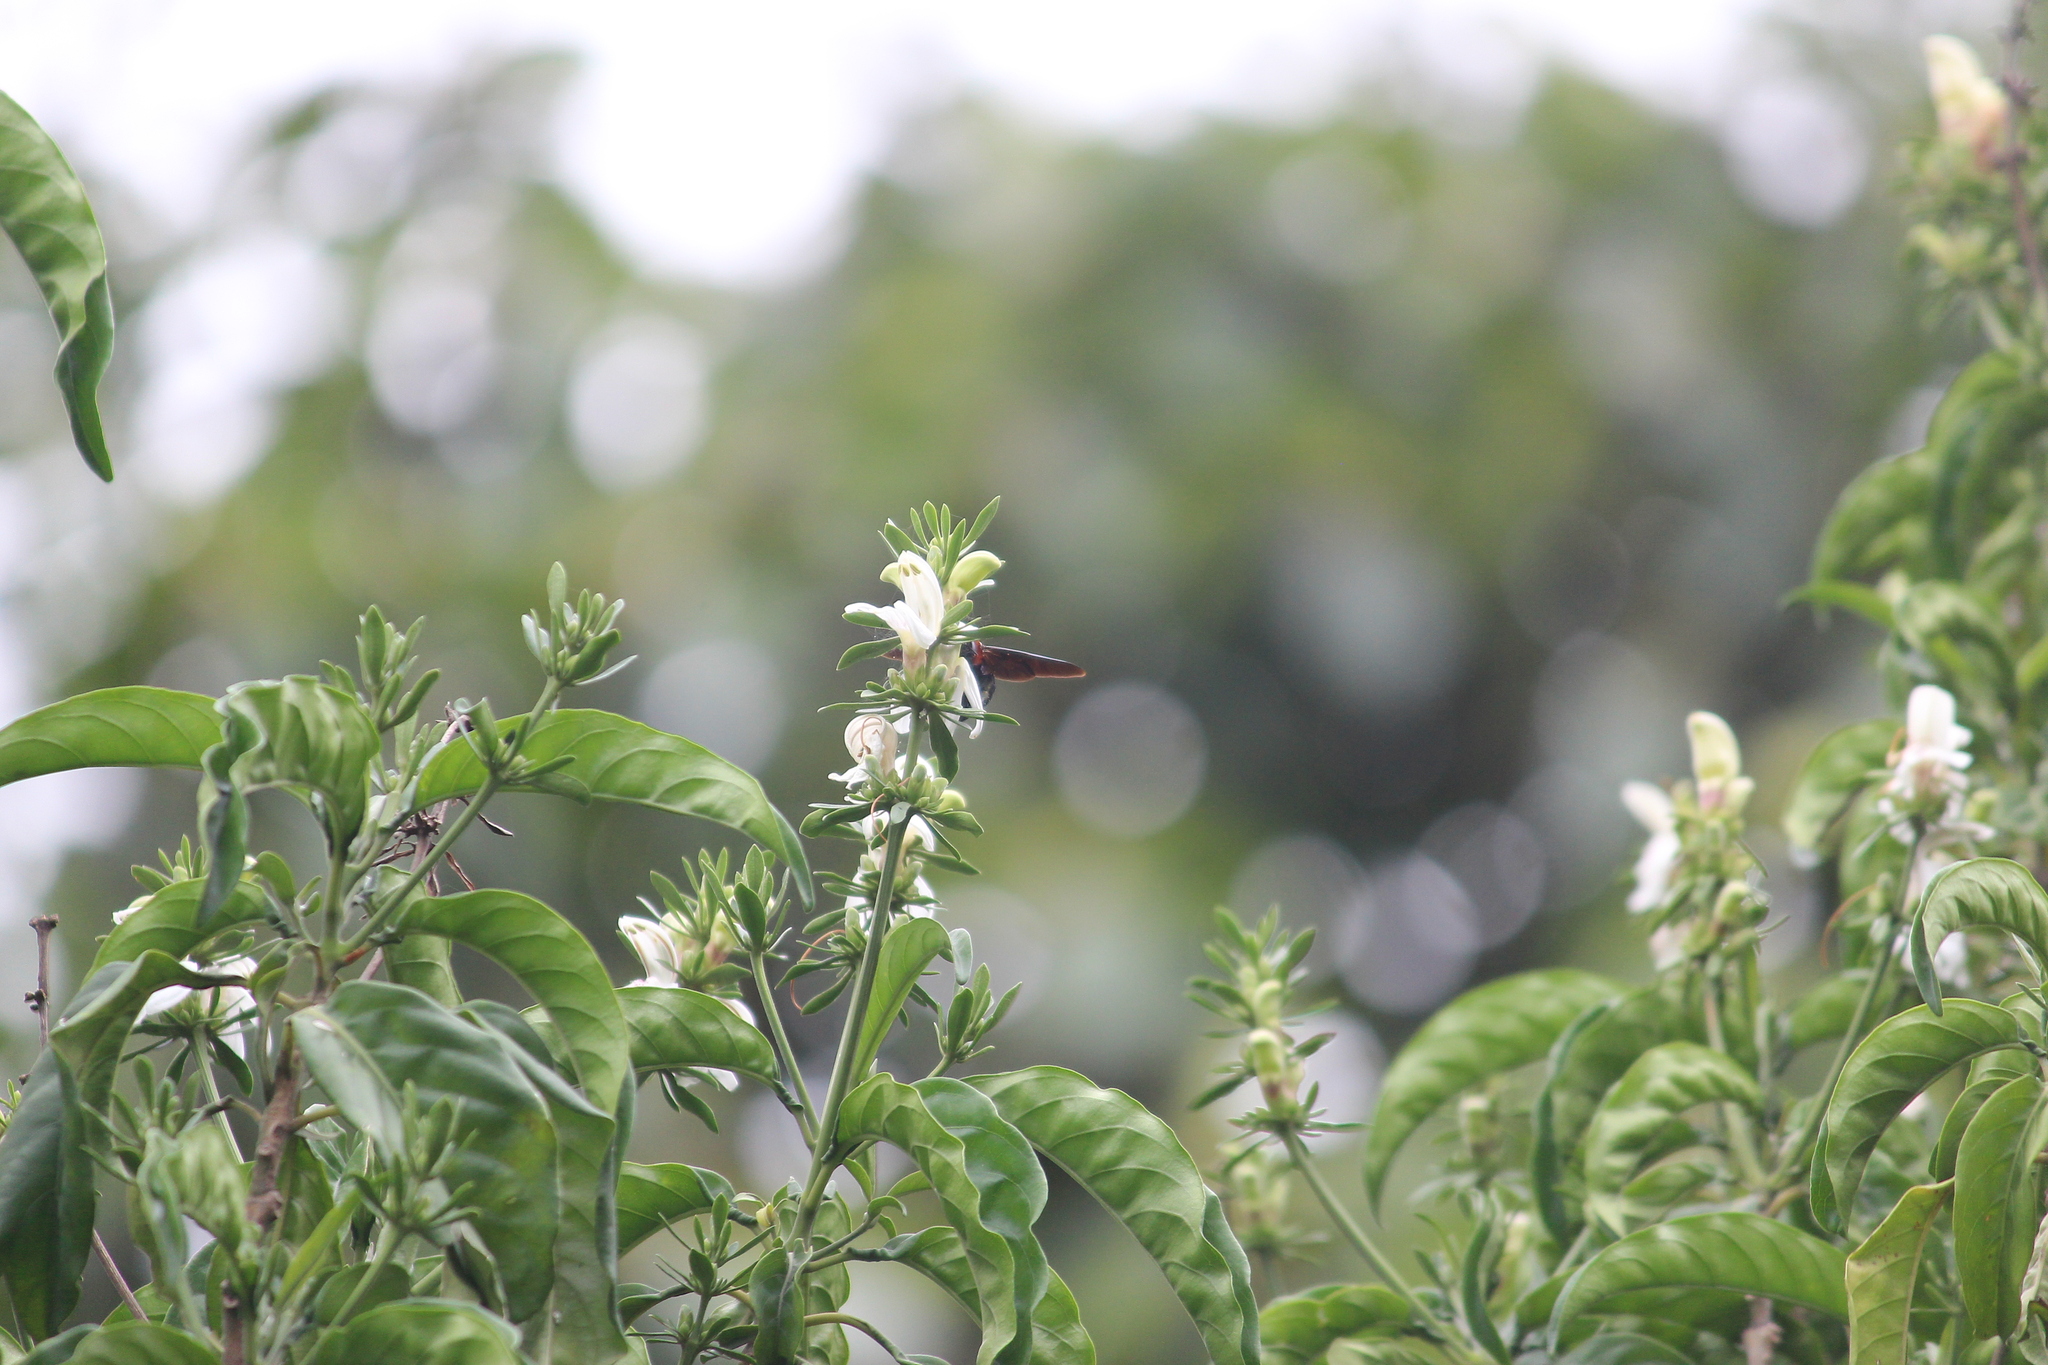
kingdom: Animalia
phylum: Arthropoda
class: Insecta
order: Hymenoptera
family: Apidae
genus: Xylocopa
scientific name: Xylocopa flavorufa
